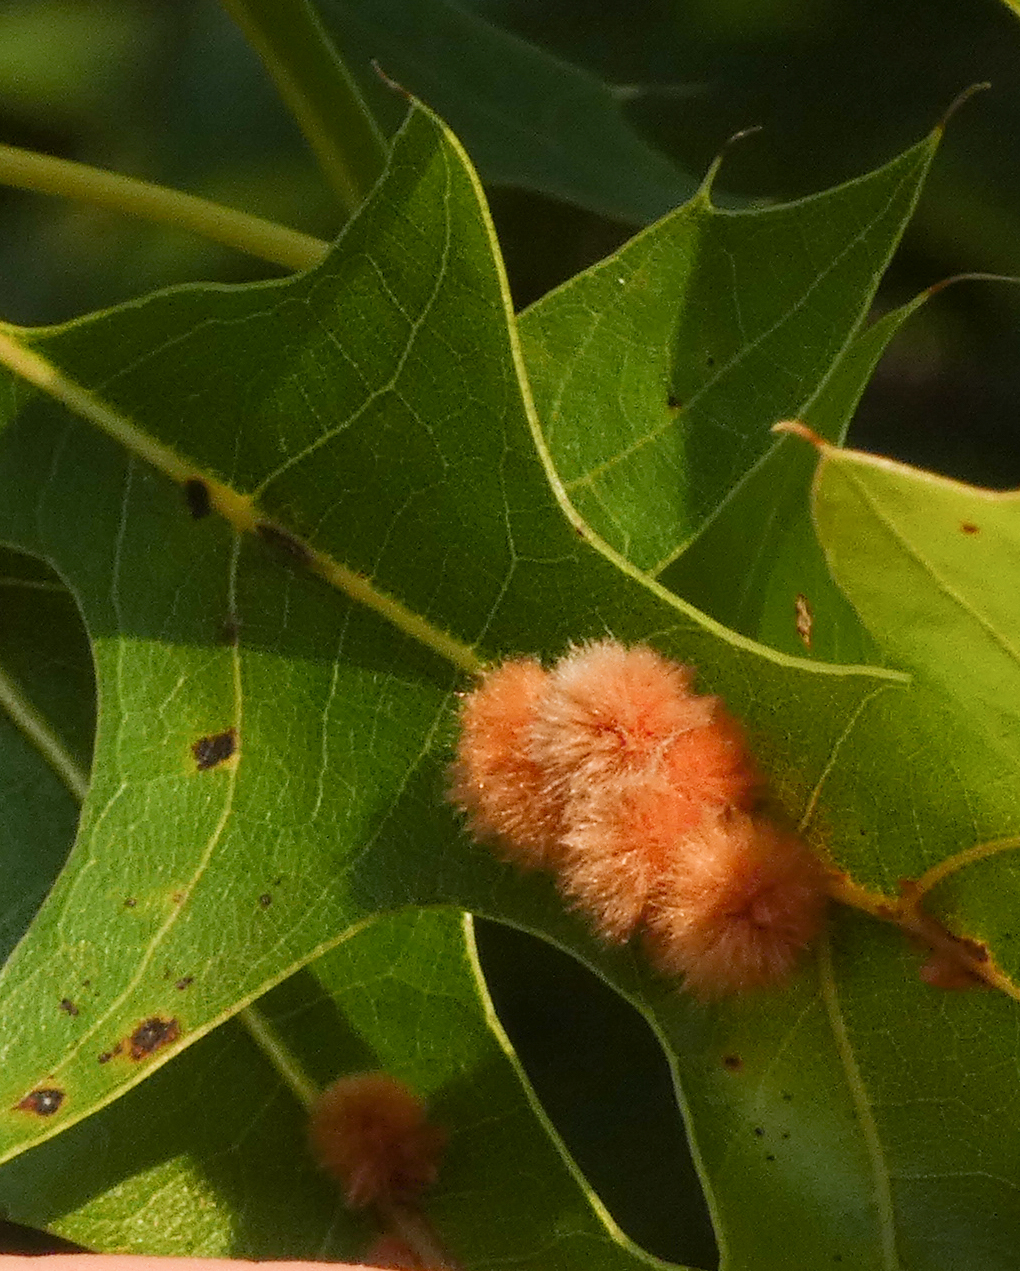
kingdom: Animalia
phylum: Arthropoda
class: Insecta
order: Hymenoptera
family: Cynipidae
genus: Callirhytis
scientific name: Callirhytis
